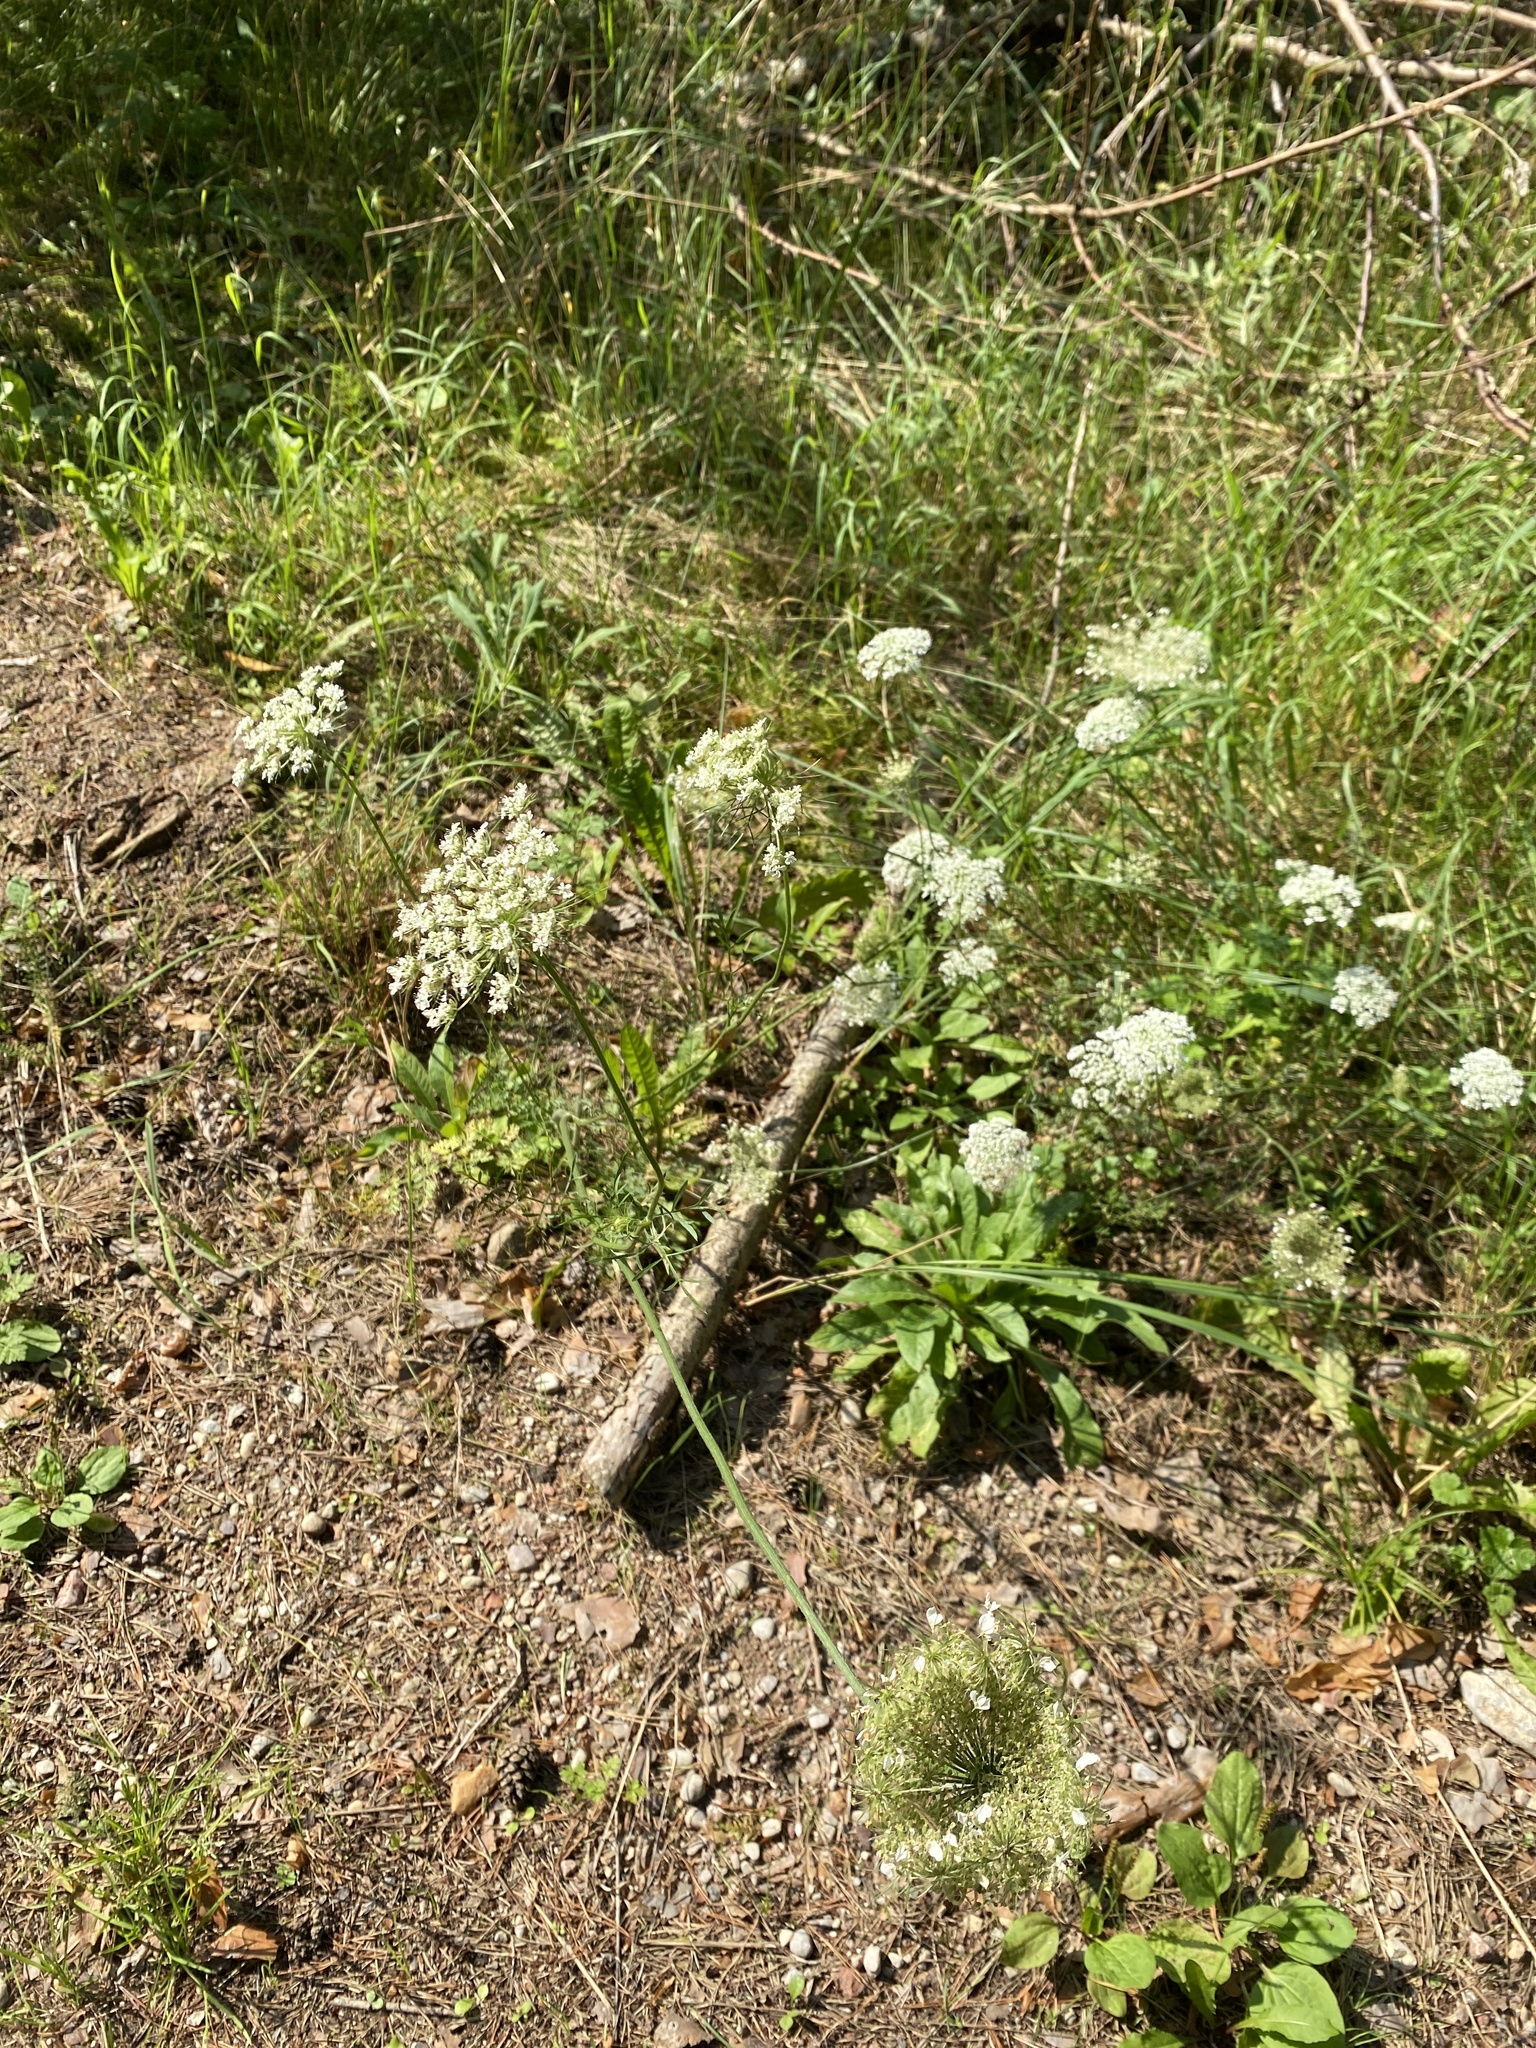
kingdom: Plantae
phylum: Tracheophyta
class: Magnoliopsida
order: Apiales
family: Apiaceae
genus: Daucus
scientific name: Daucus carota
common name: Wild carrot
